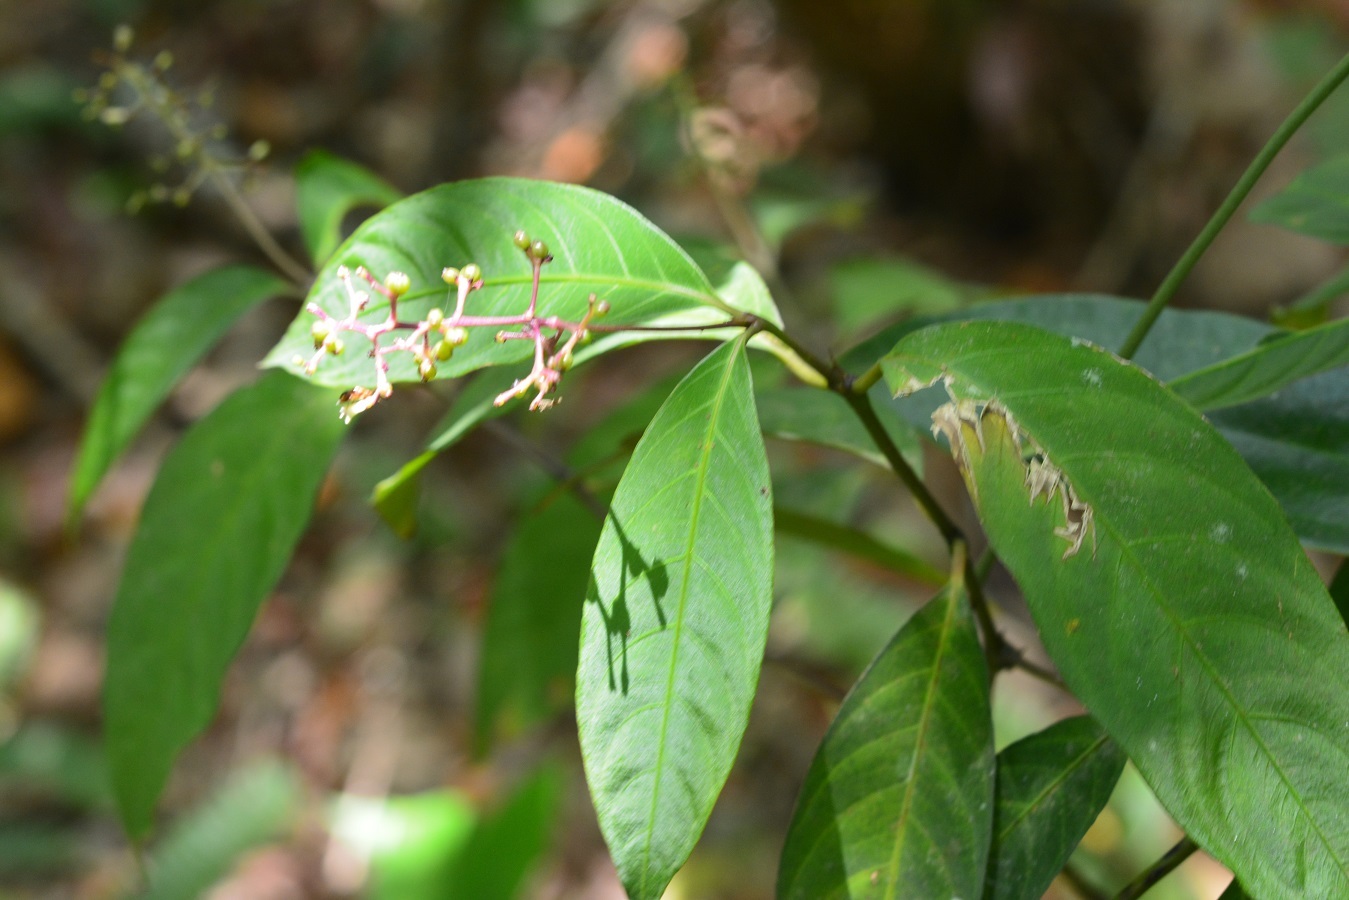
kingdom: Plantae
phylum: Tracheophyta
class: Magnoliopsida
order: Gentianales
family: Rubiaceae
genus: Palicourea
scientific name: Palicourea deflexa
